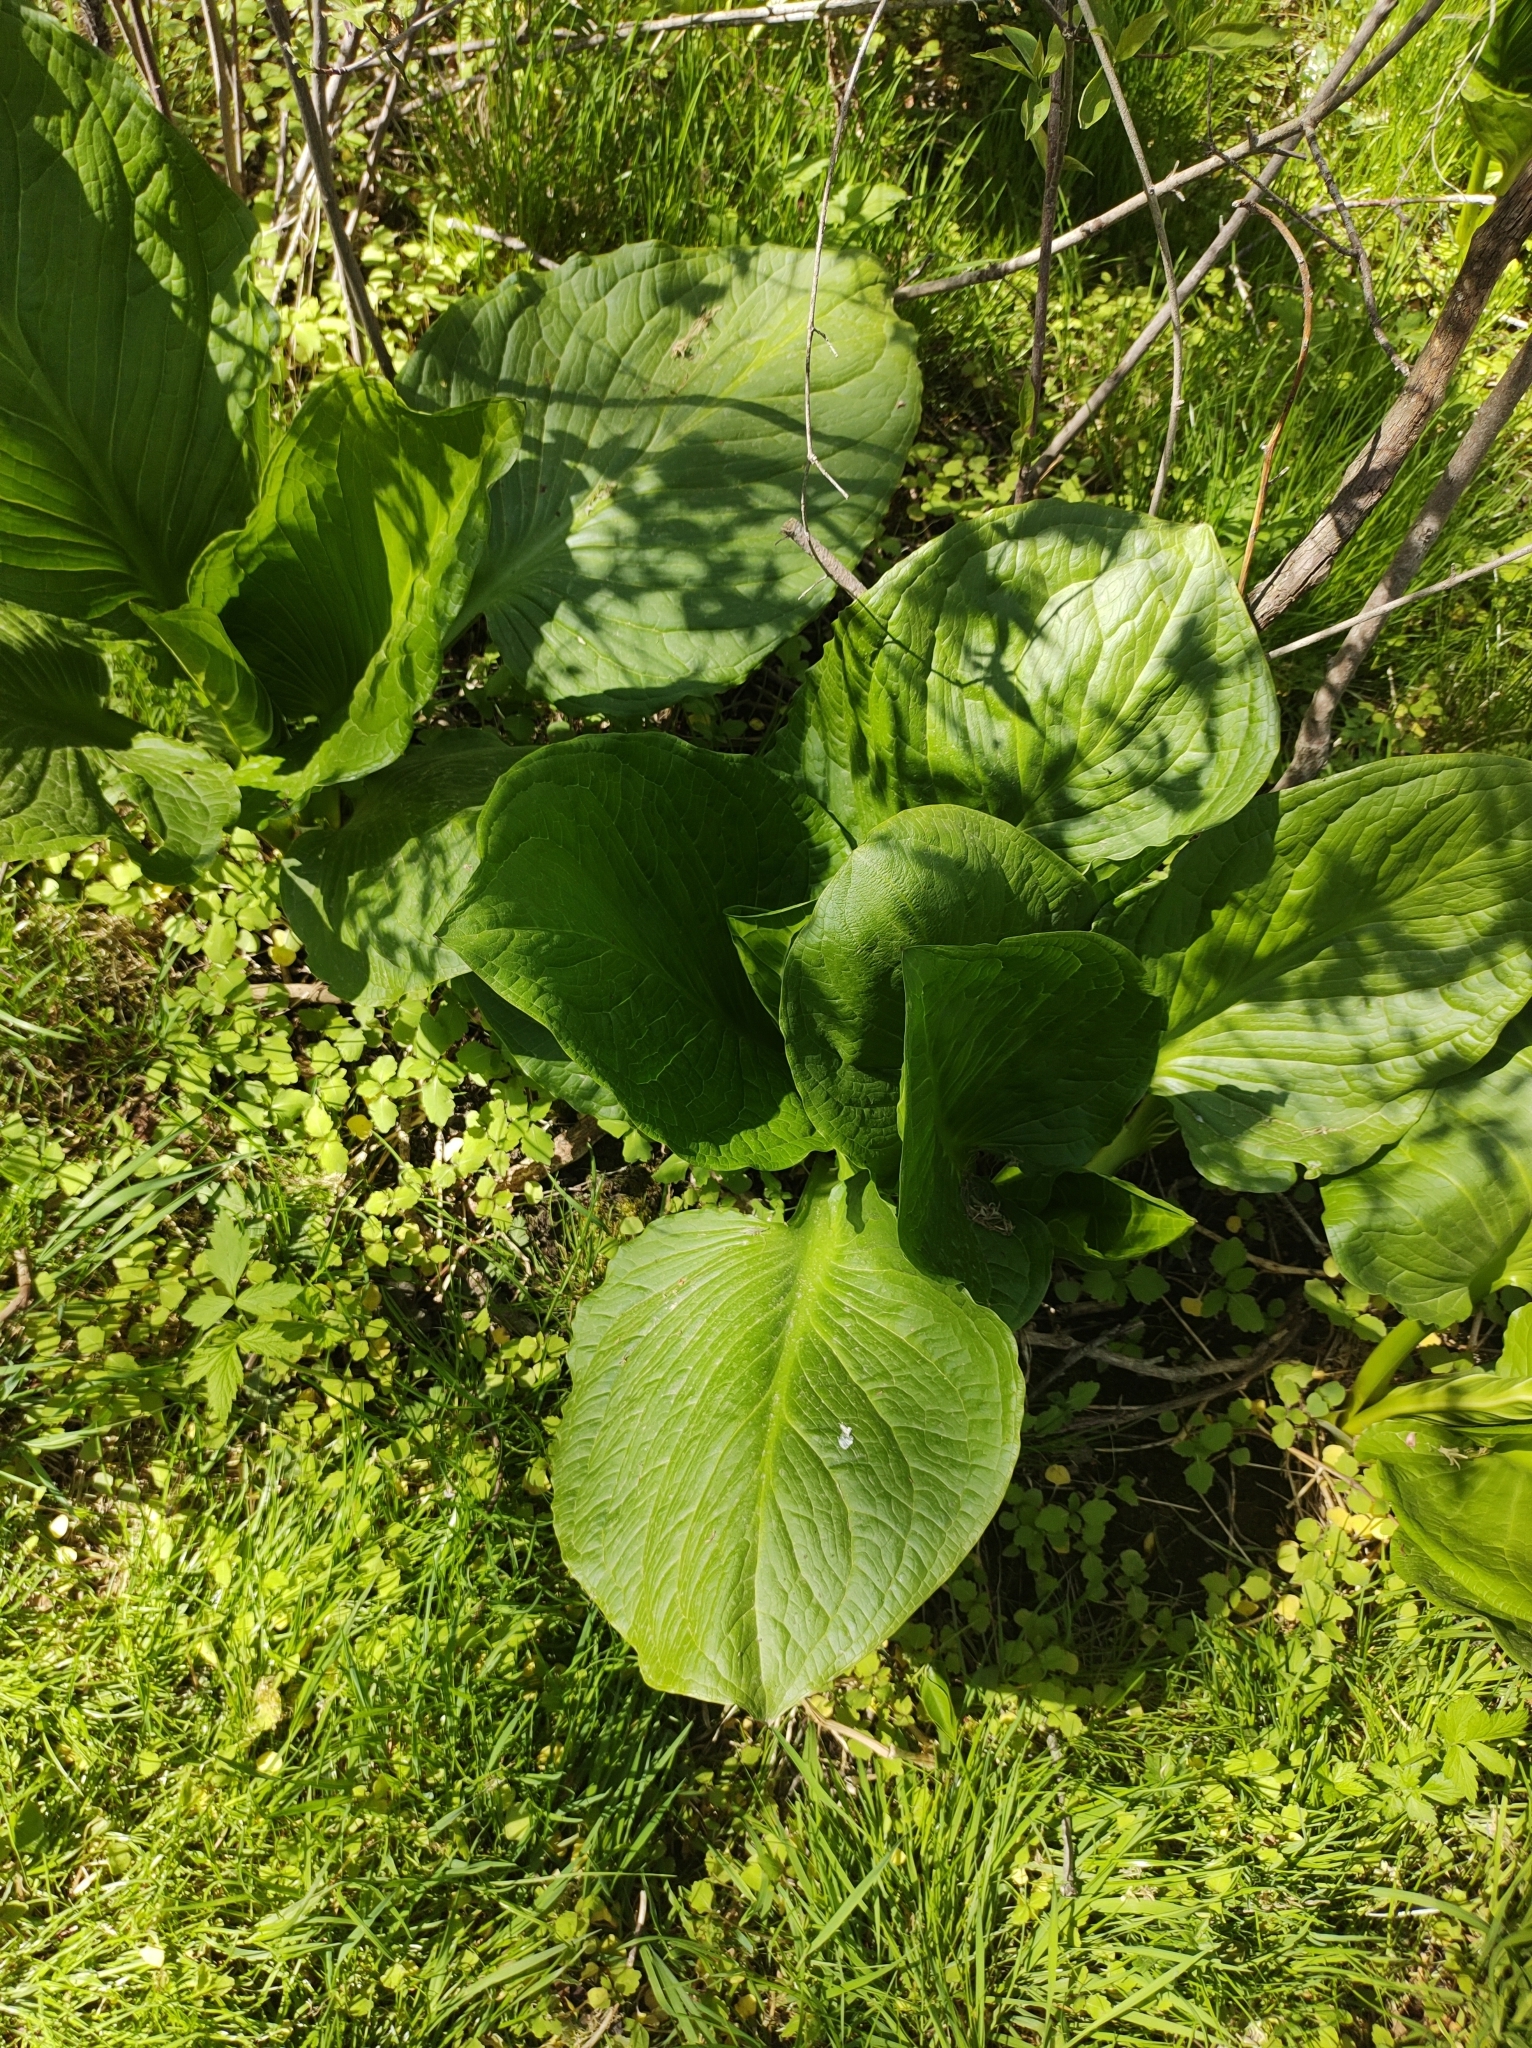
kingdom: Plantae
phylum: Tracheophyta
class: Liliopsida
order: Alismatales
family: Araceae
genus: Symplocarpus
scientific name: Symplocarpus foetidus
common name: Eastern skunk cabbage
